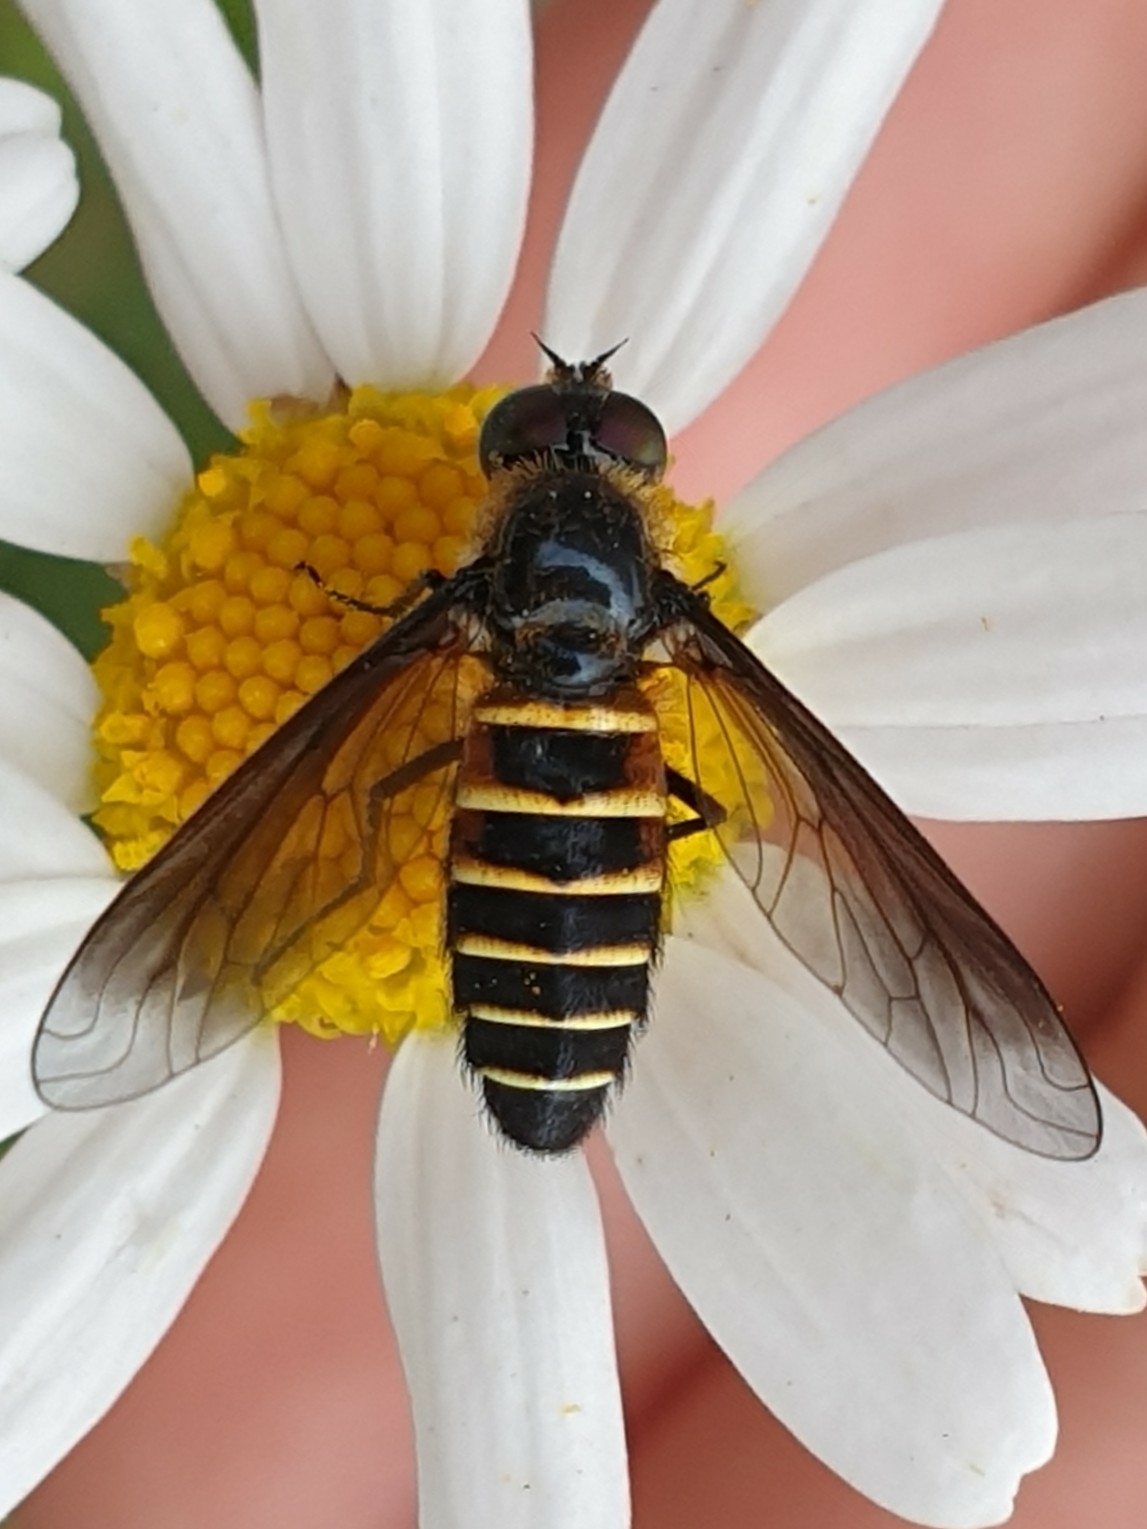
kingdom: Animalia
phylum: Arthropoda
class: Insecta
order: Diptera
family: Bombyliidae
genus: Lomatia
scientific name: Lomatia lateralis
